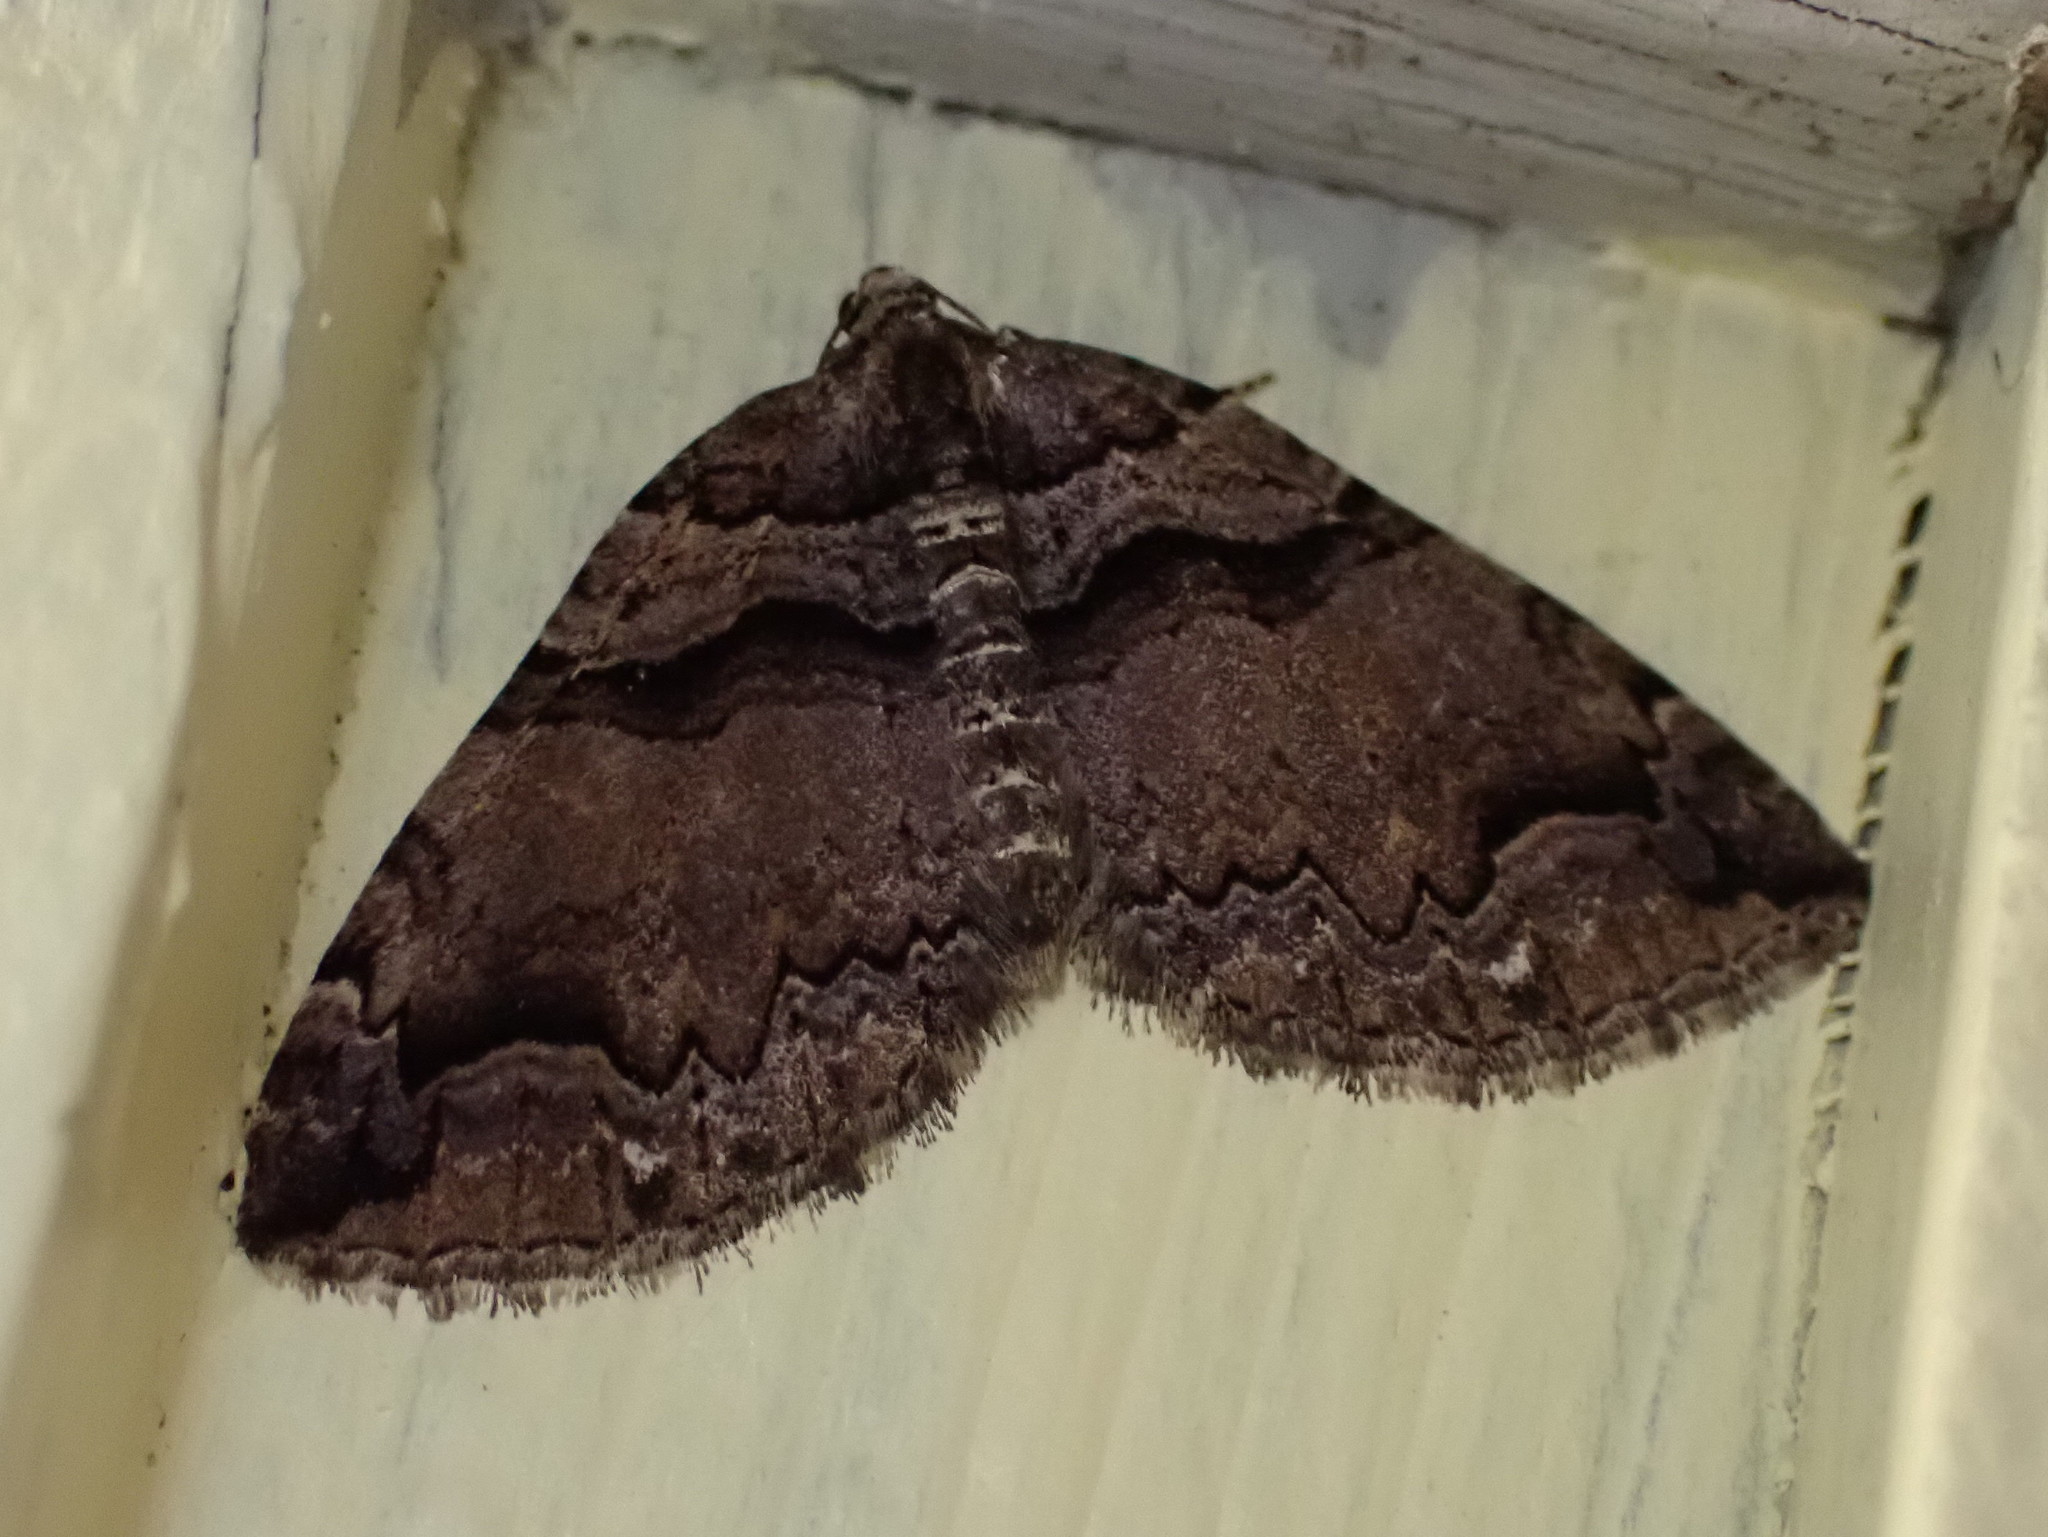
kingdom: Animalia
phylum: Arthropoda
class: Insecta
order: Lepidoptera
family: Geometridae
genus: Anticlea
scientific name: Anticlea vasiliata
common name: Variable carpet
